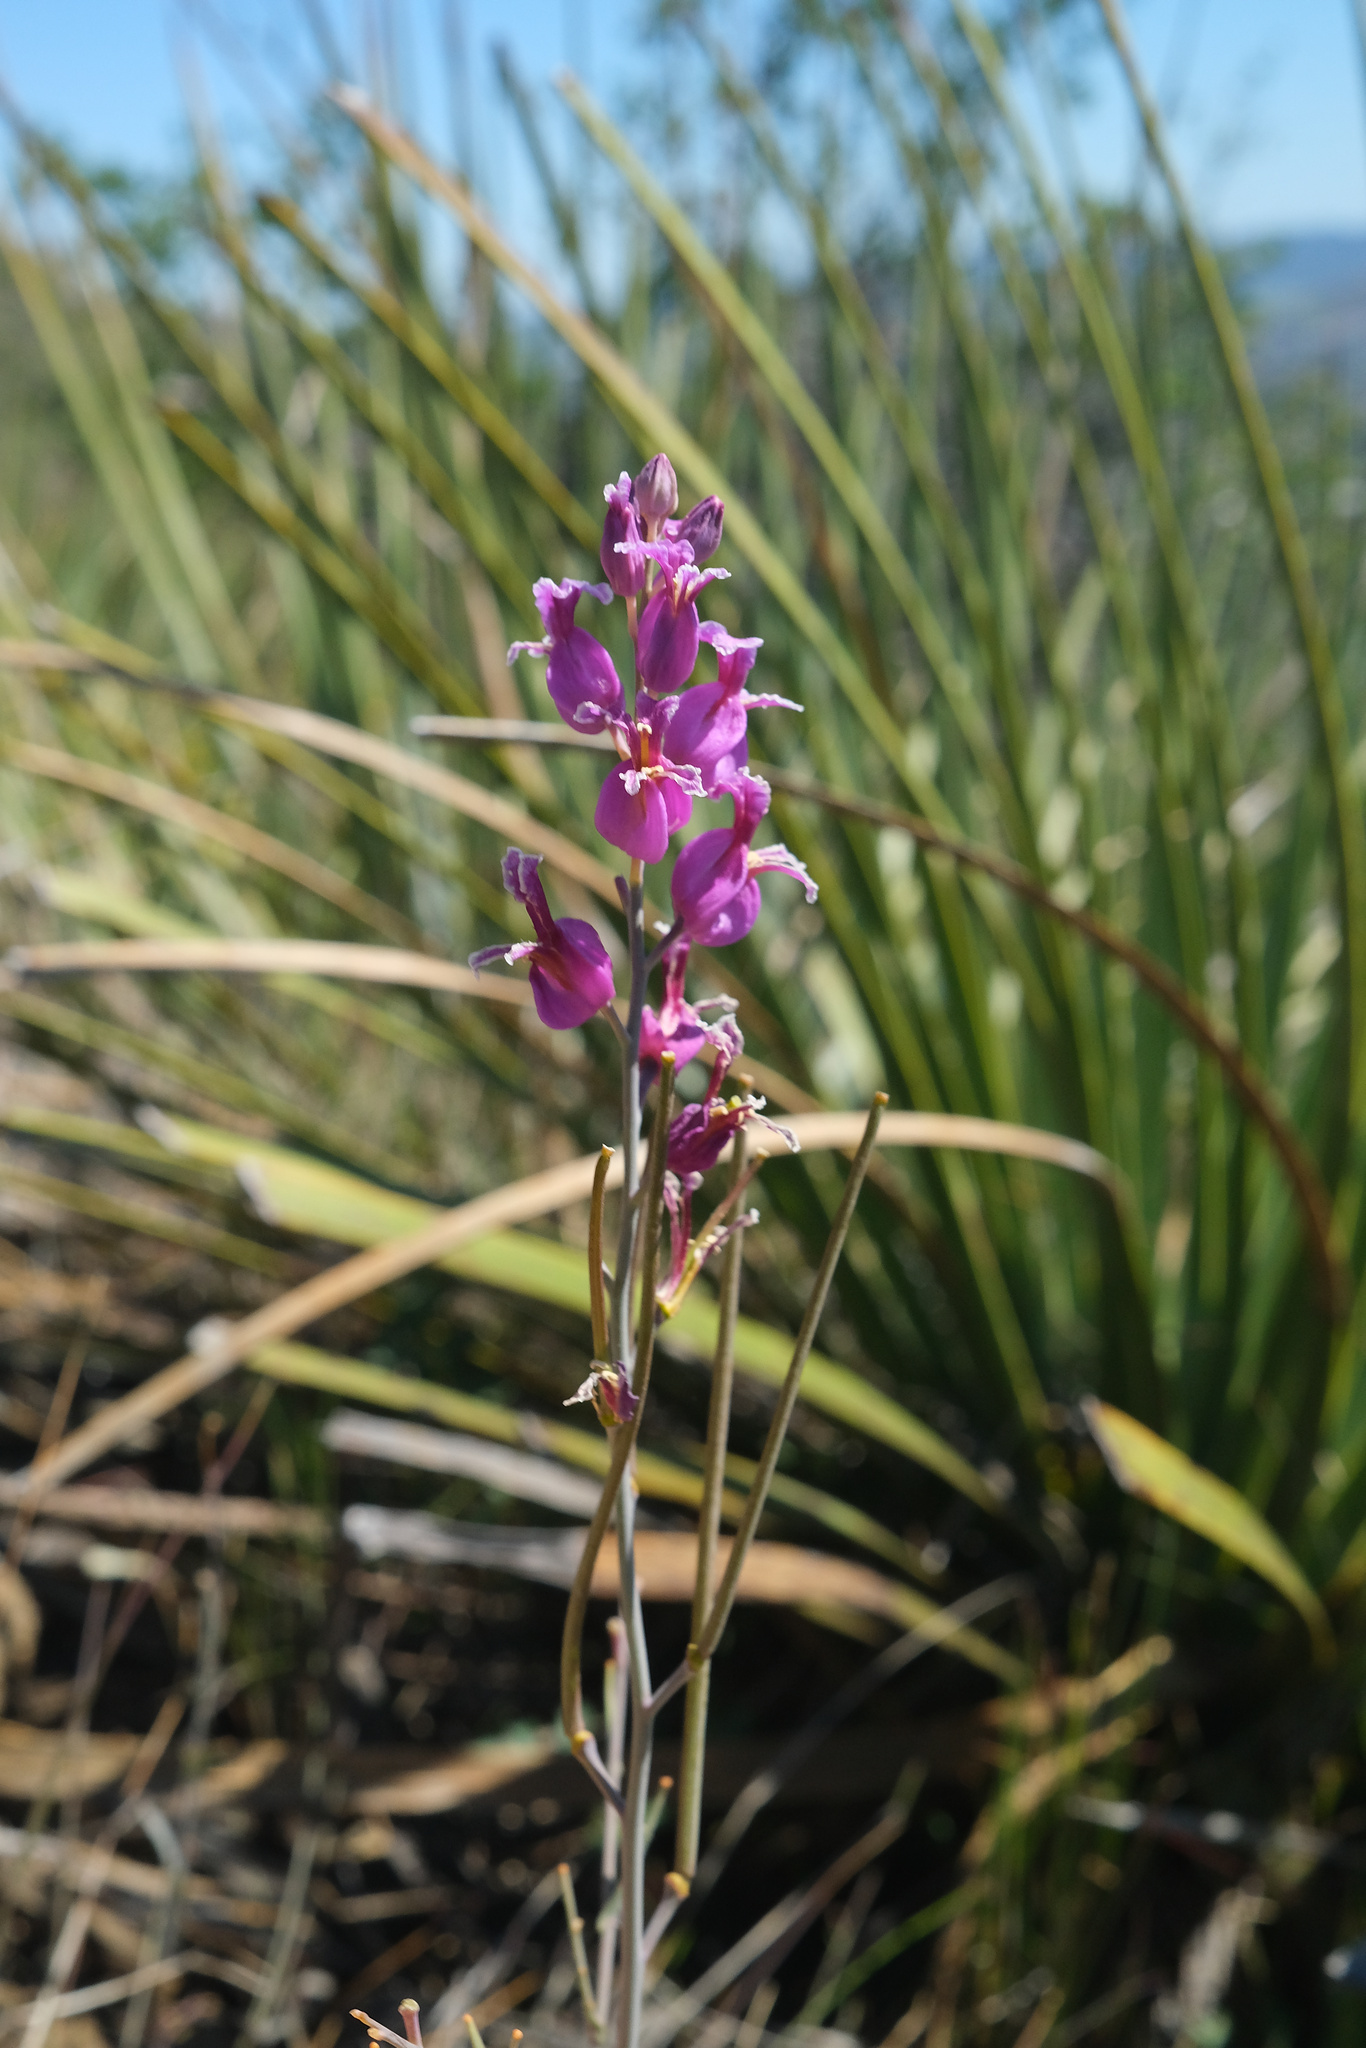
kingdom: Plantae
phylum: Tracheophyta
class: Magnoliopsida
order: Brassicales
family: Brassicaceae
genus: Streptanthus
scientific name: Streptanthus glandulosus
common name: Jewel-flower
